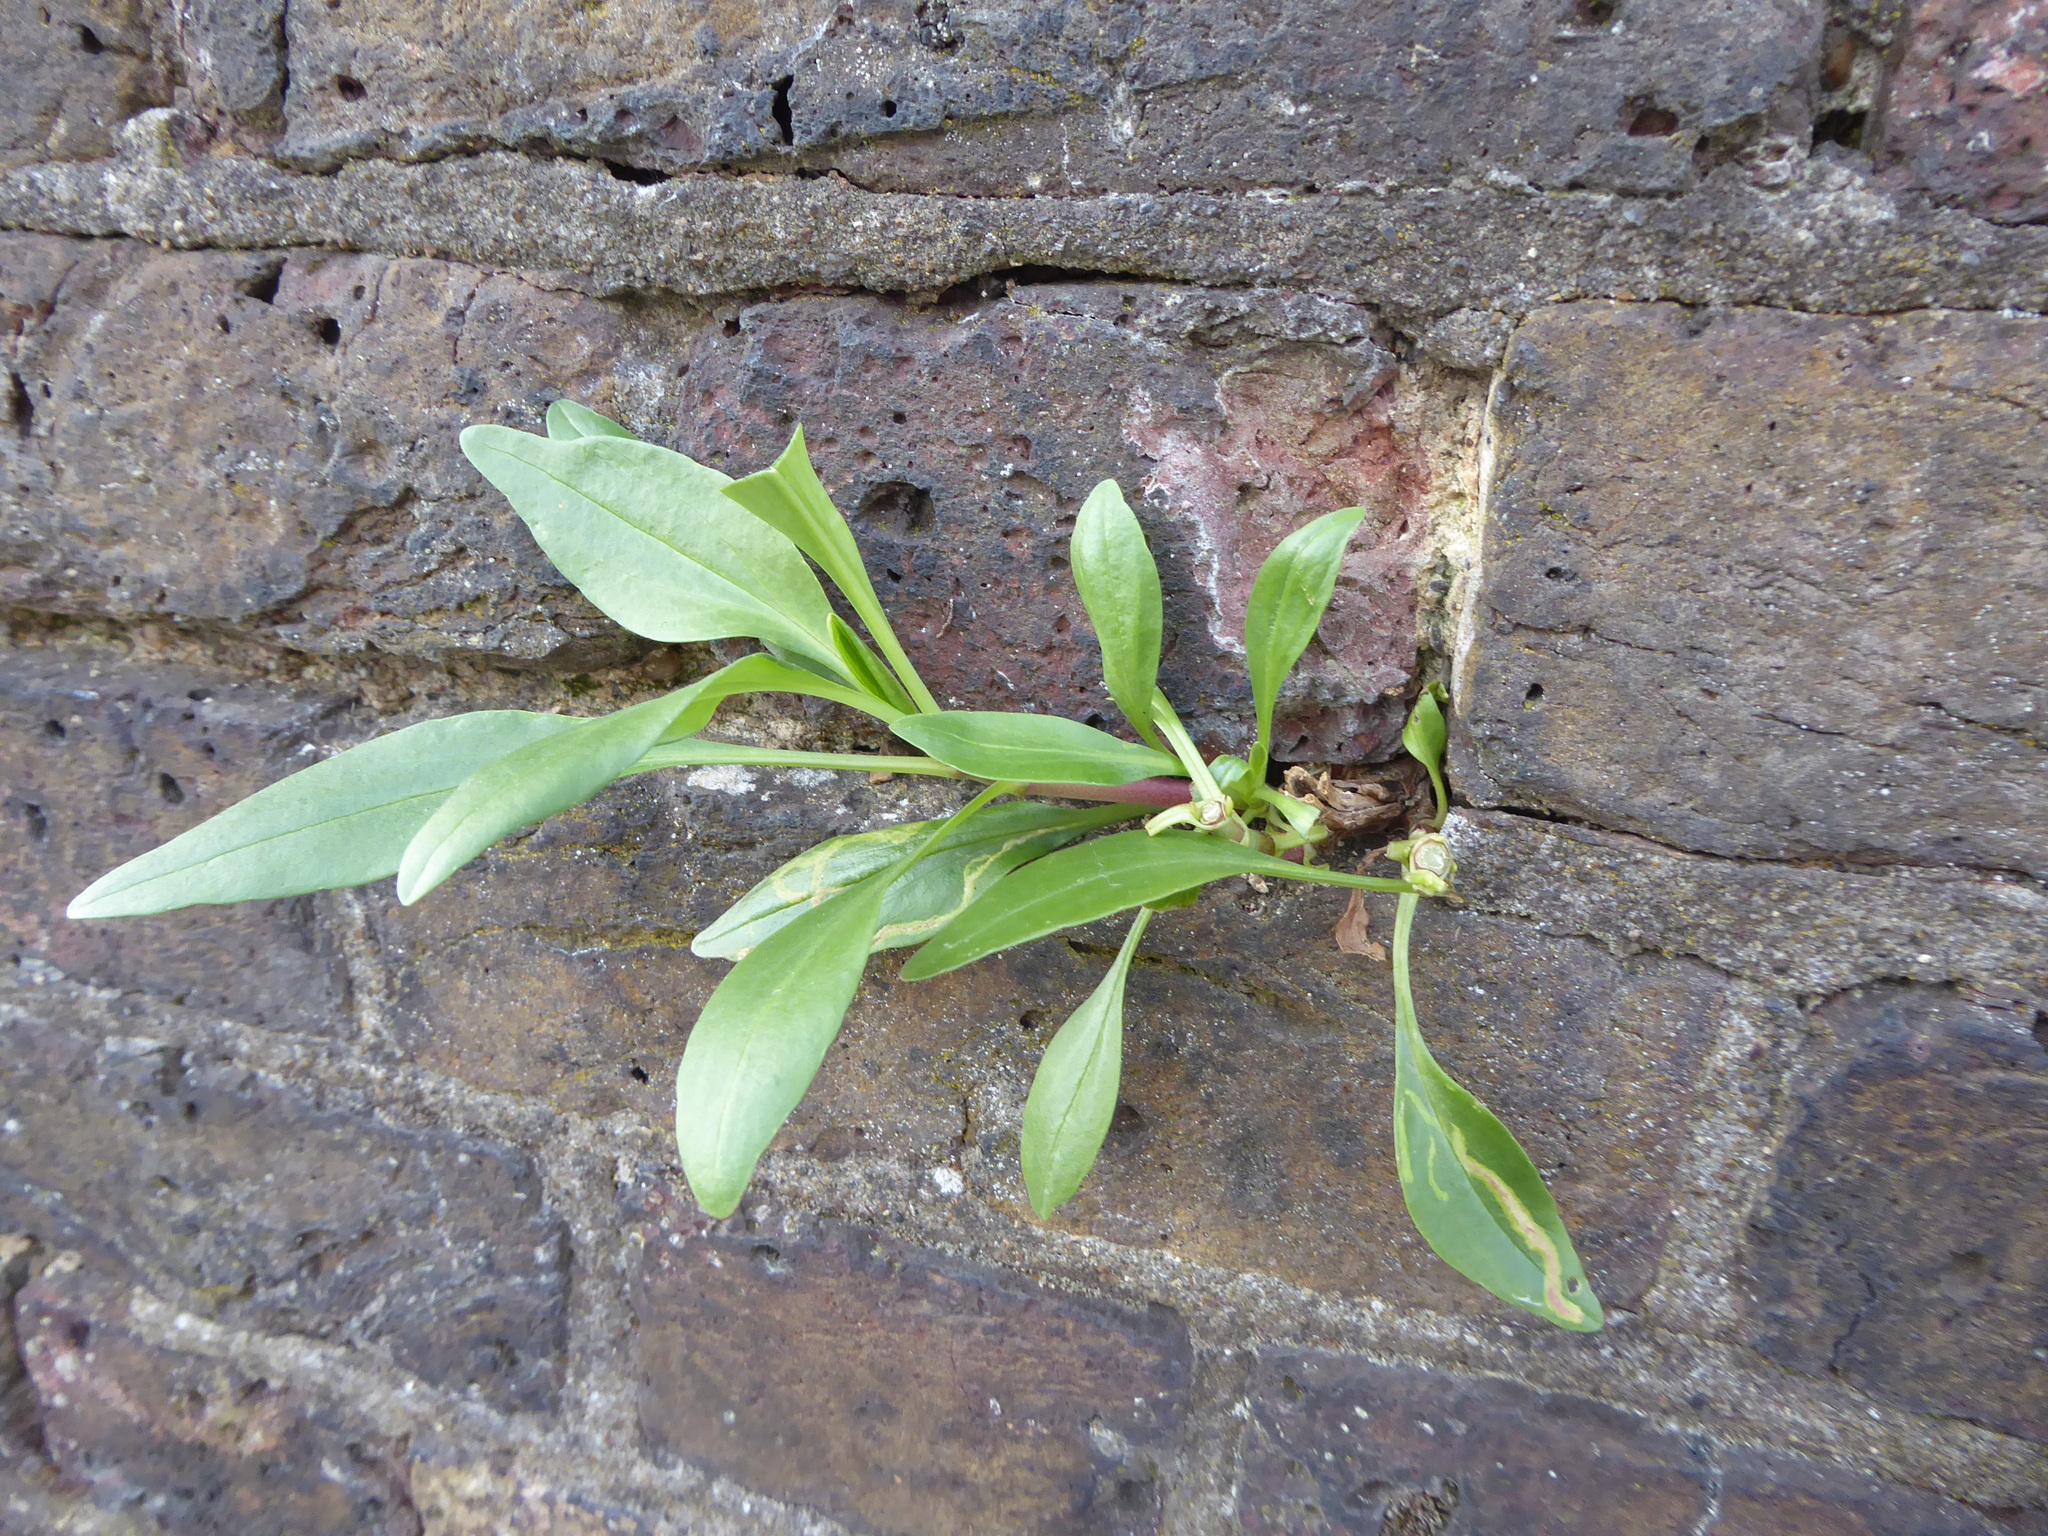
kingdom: Plantae
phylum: Tracheophyta
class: Magnoliopsida
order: Dipsacales
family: Caprifoliaceae
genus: Centranthus
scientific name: Centranthus ruber
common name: Red valerian
